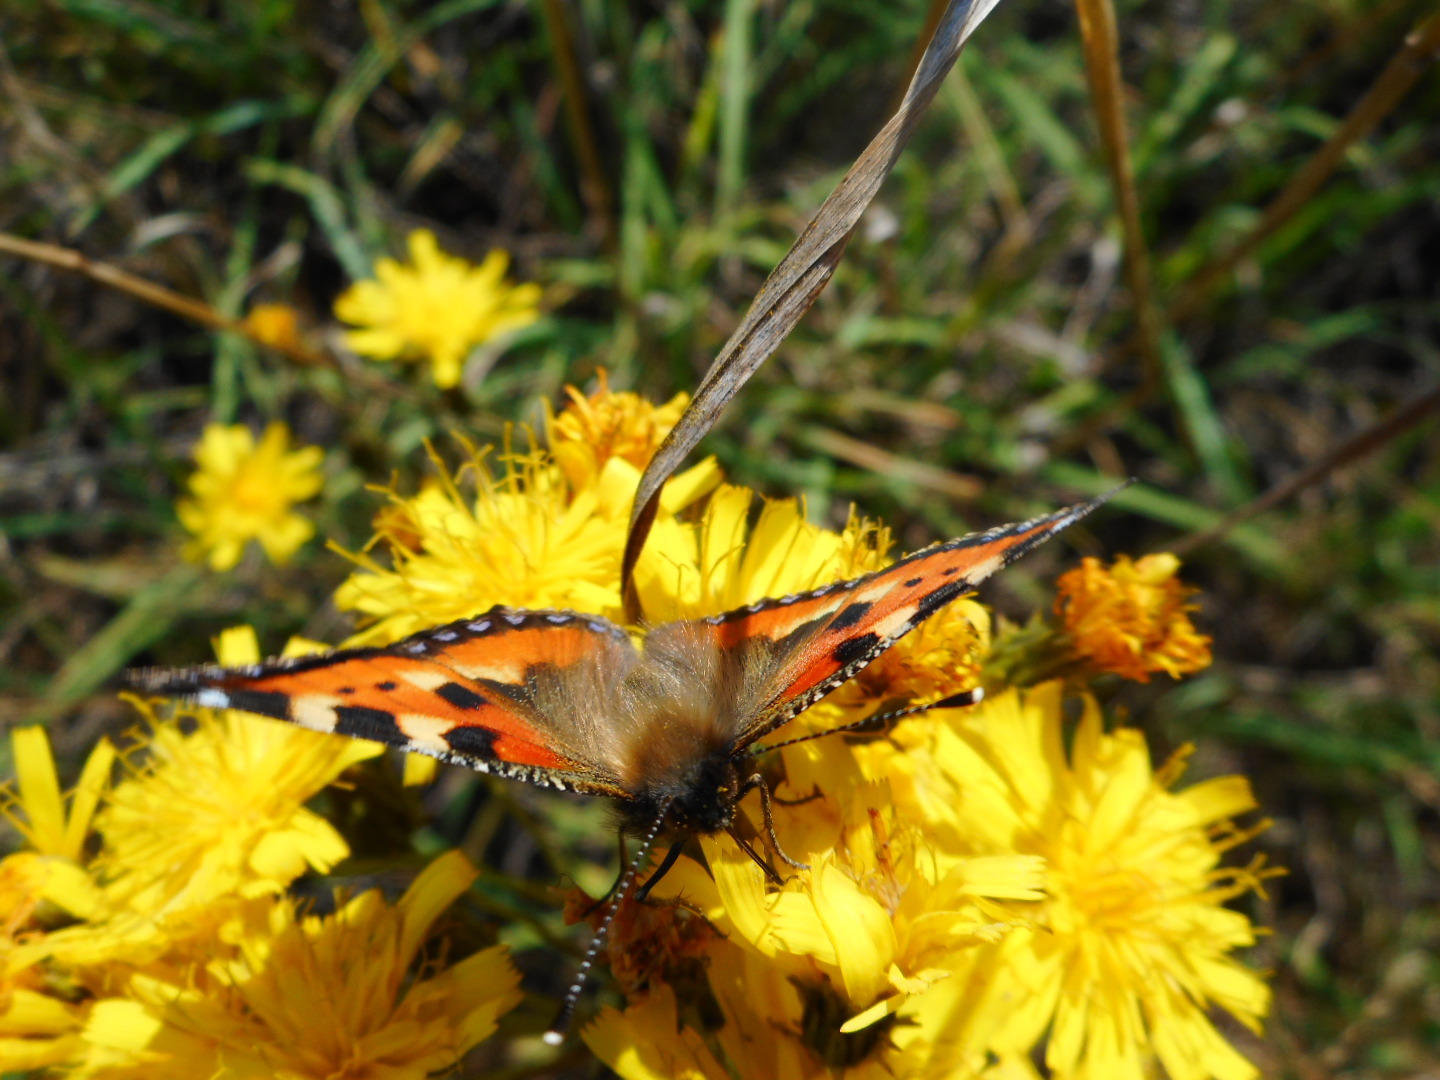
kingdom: Animalia
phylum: Arthropoda
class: Insecta
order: Lepidoptera
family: Nymphalidae
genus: Aglais
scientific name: Aglais urticae
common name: Small tortoiseshell
